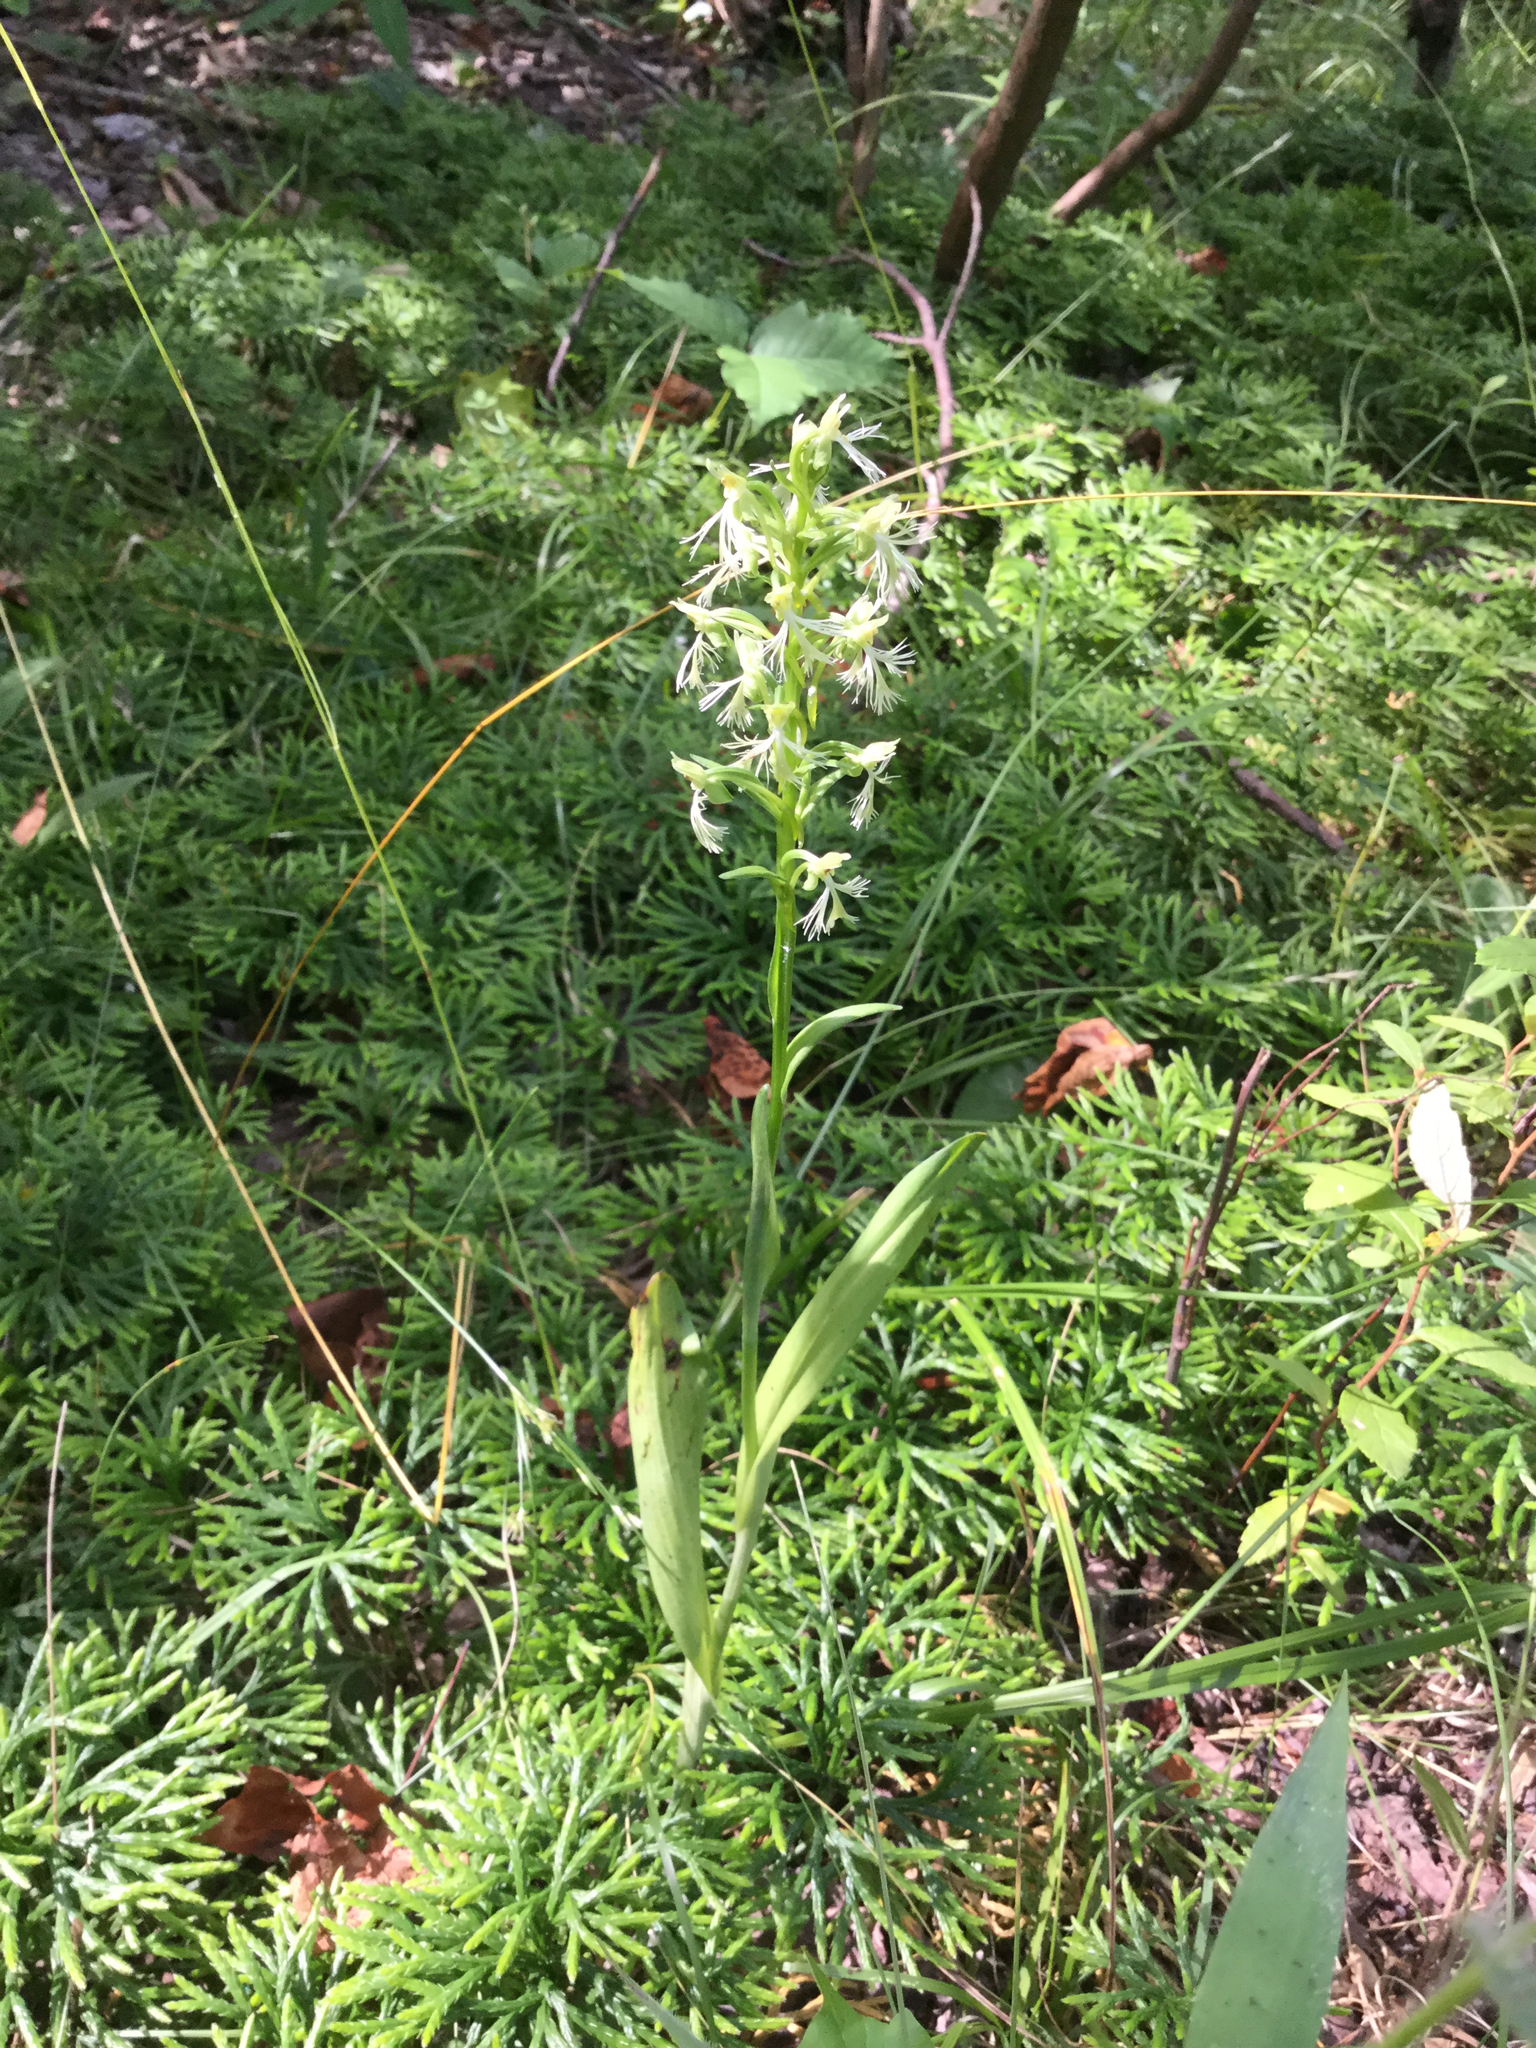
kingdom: Plantae
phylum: Tracheophyta
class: Liliopsida
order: Asparagales
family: Orchidaceae
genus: Platanthera
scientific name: Platanthera lacera
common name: Green fringed orchid
